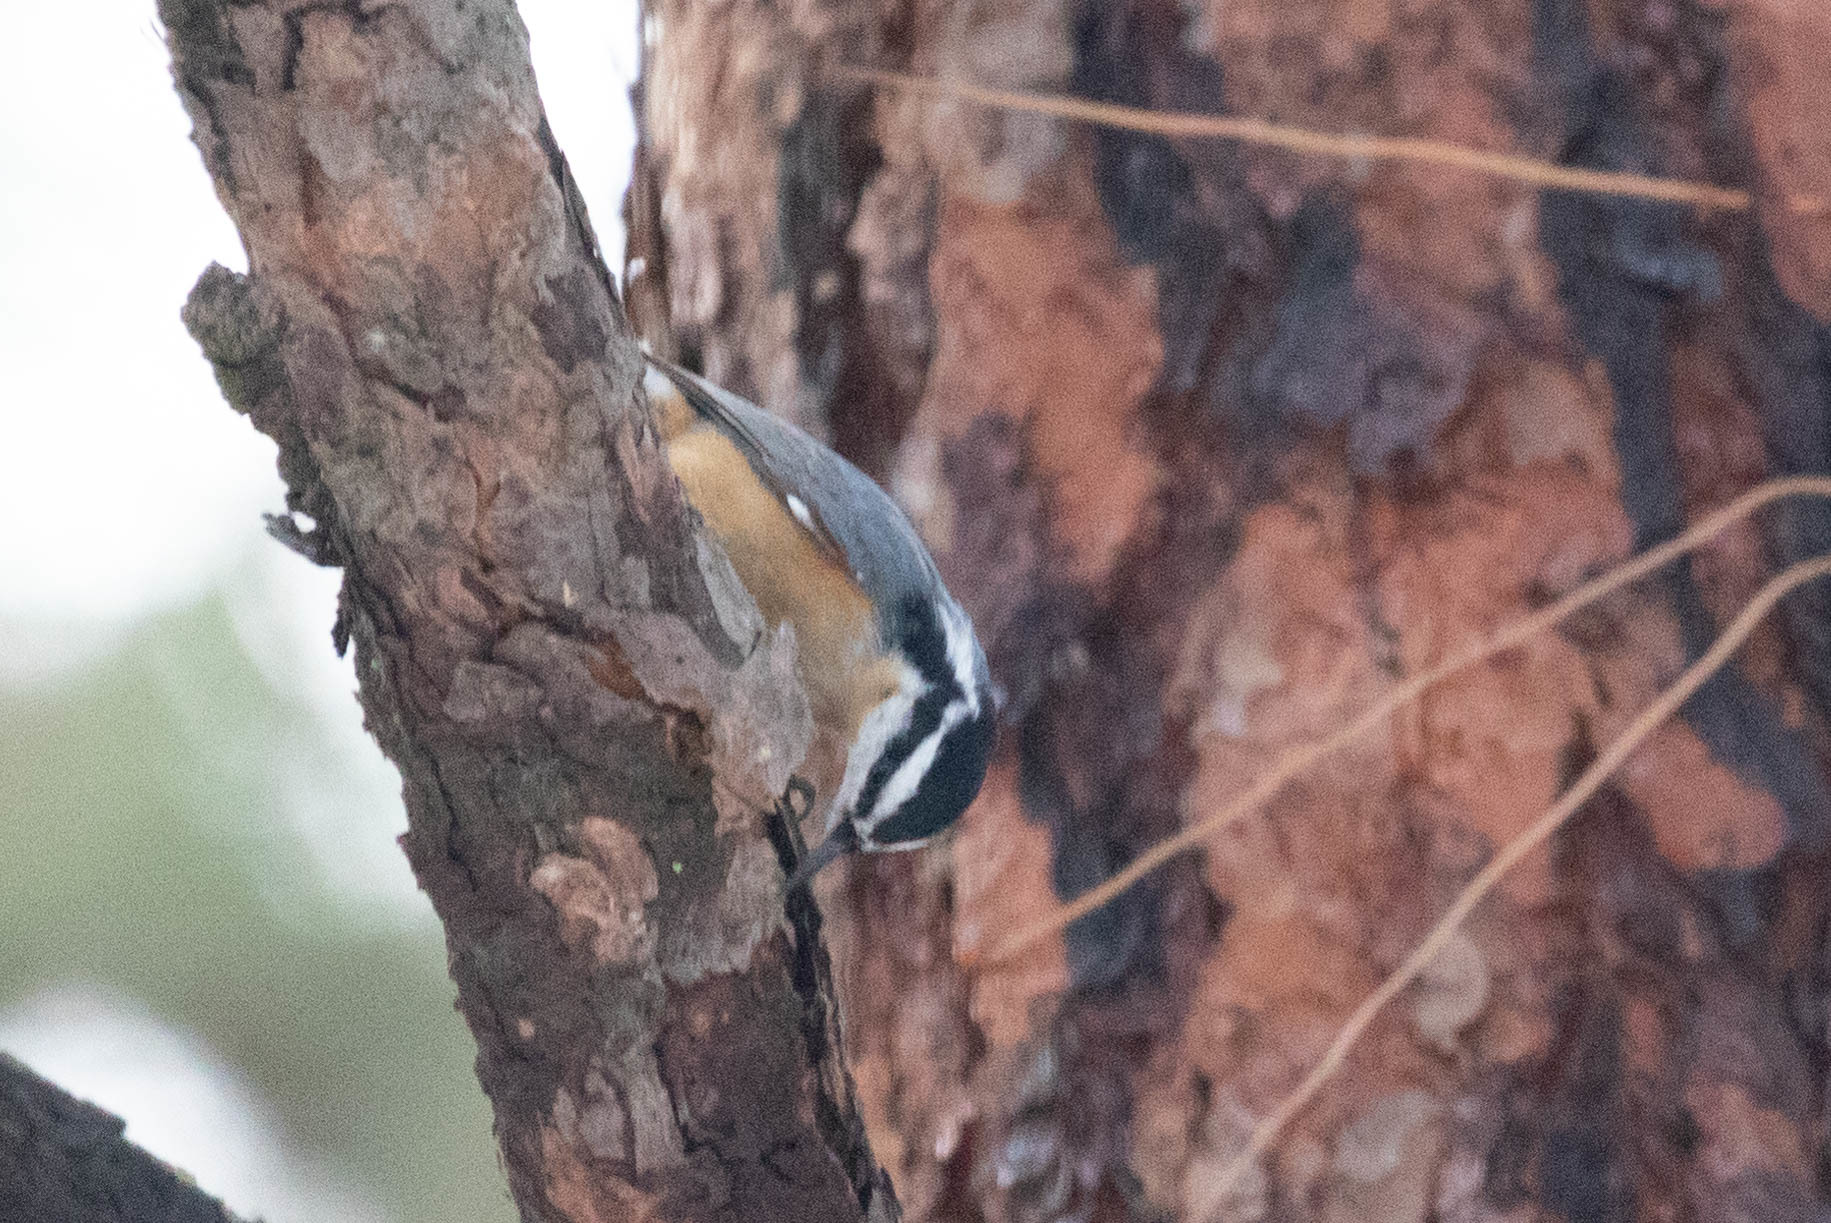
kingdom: Animalia
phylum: Chordata
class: Aves
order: Passeriformes
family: Sittidae
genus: Sitta
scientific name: Sitta canadensis
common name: Red-breasted nuthatch
